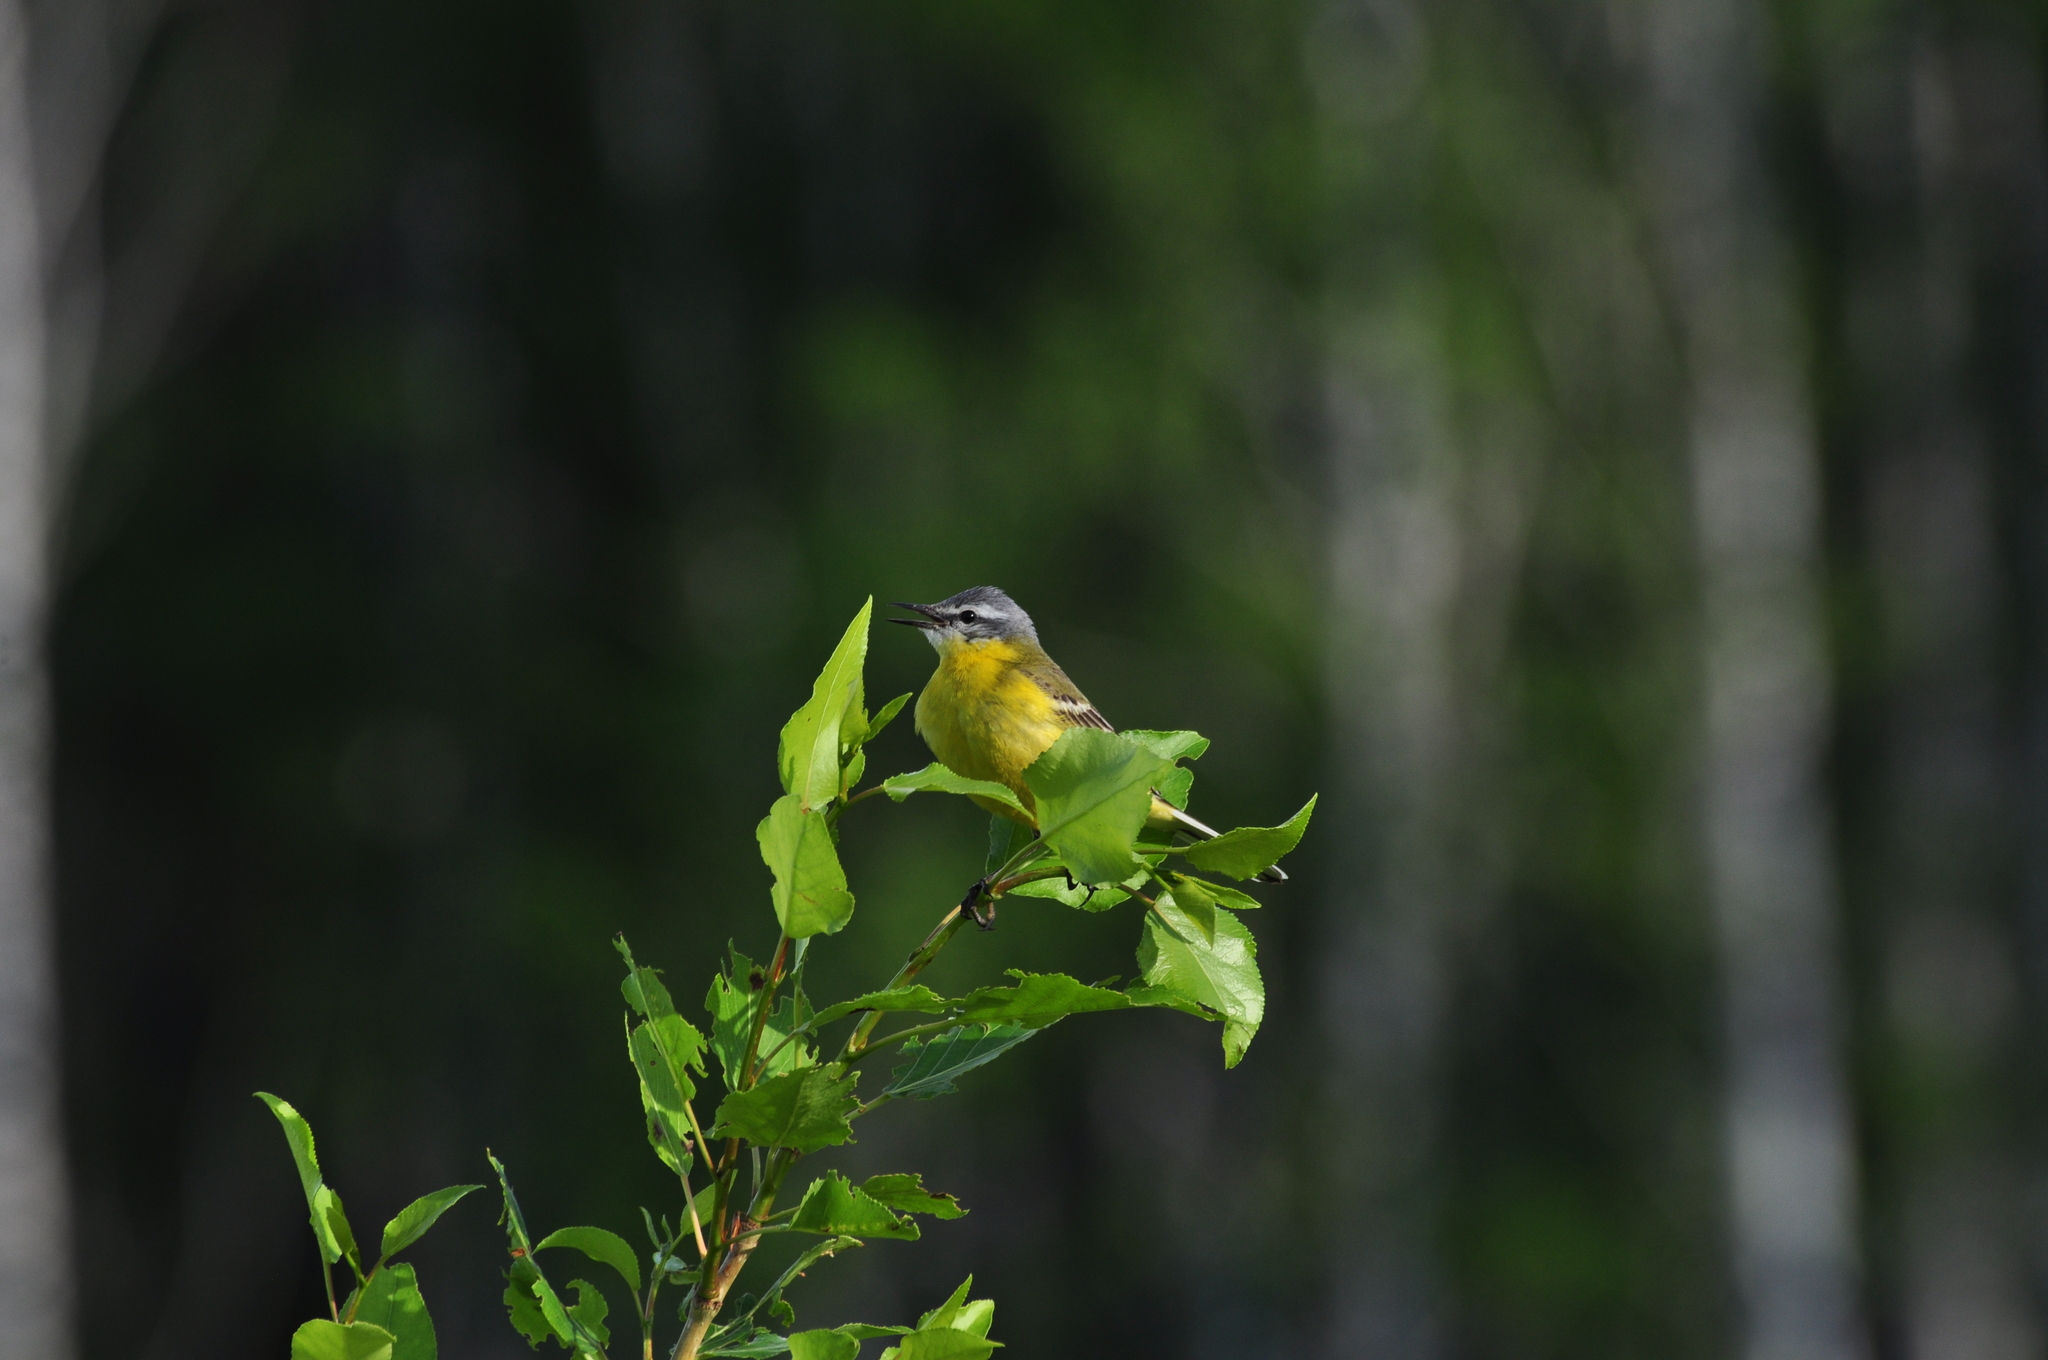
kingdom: Animalia
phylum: Chordata
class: Aves
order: Passeriformes
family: Motacillidae
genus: Motacilla
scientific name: Motacilla flava
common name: Western yellow wagtail
